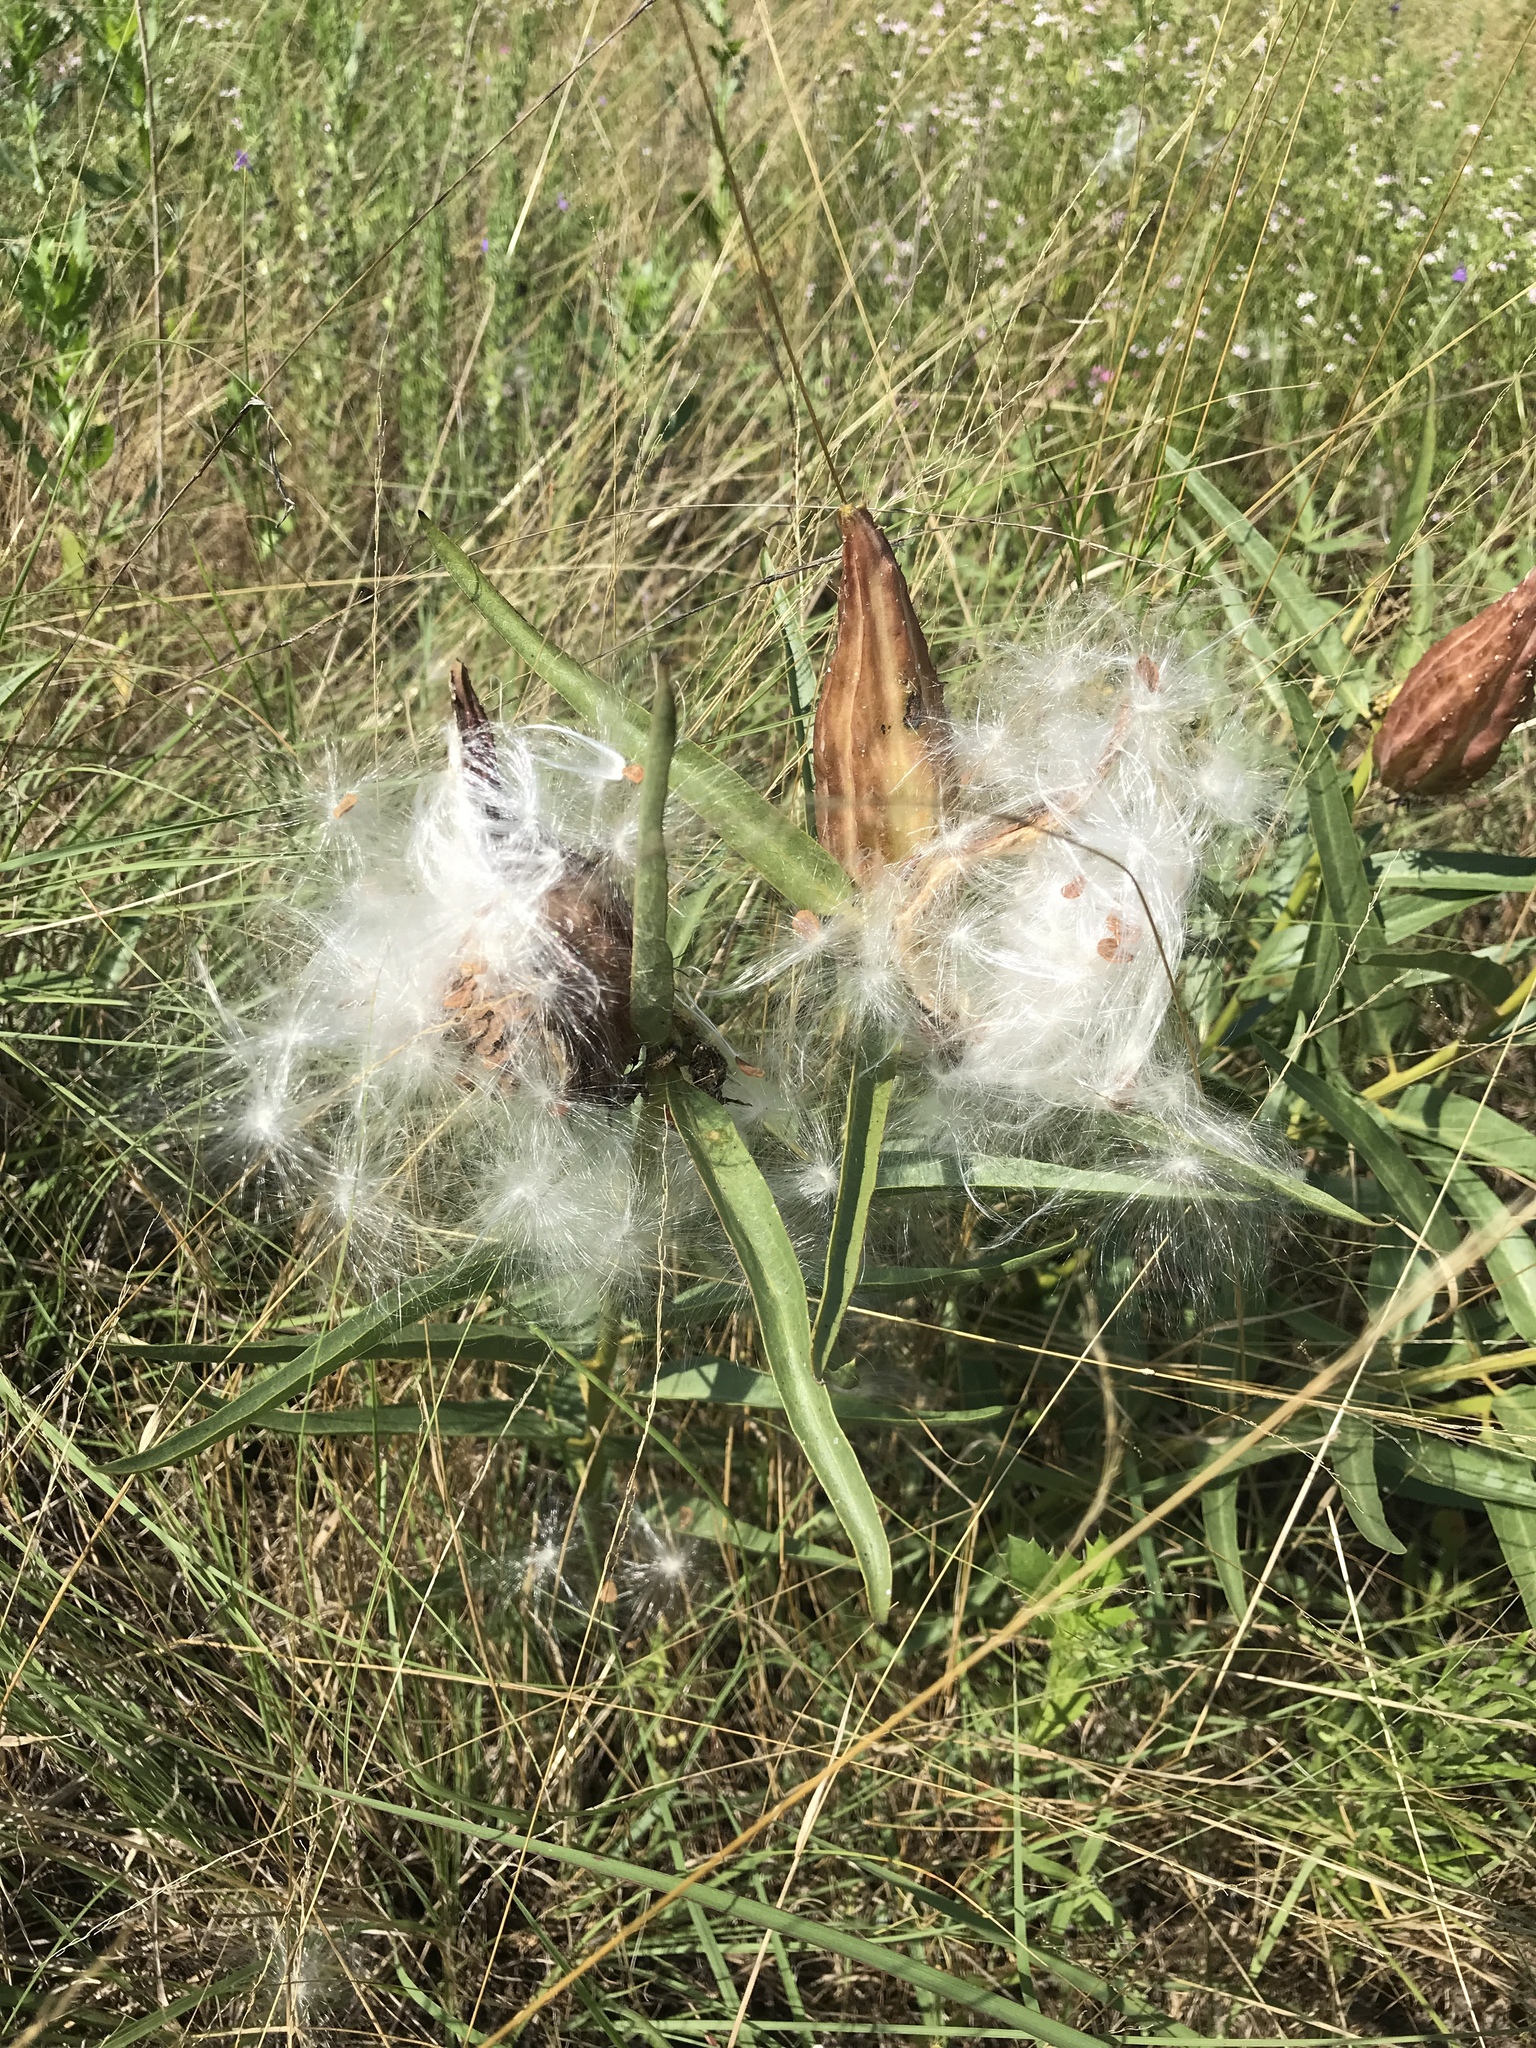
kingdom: Plantae
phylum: Tracheophyta
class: Magnoliopsida
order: Gentianales
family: Apocynaceae
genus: Asclepias
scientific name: Asclepias asperula
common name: Antelope horns
